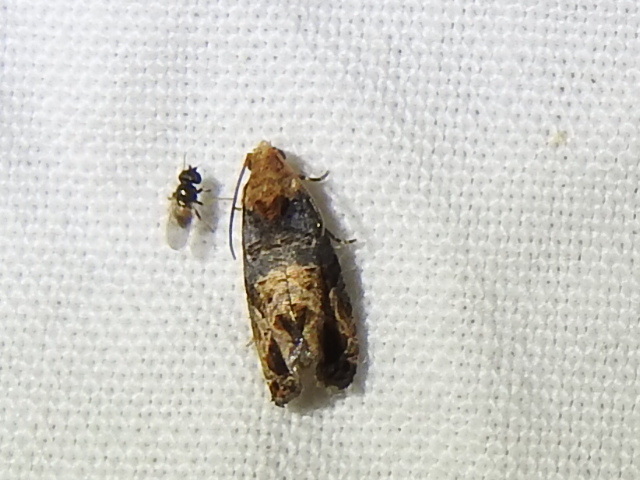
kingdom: Animalia
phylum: Arthropoda
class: Insecta
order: Lepidoptera
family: Tortricidae
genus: Paralobesia
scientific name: Paralobesia viteana
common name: Grape berry moth
